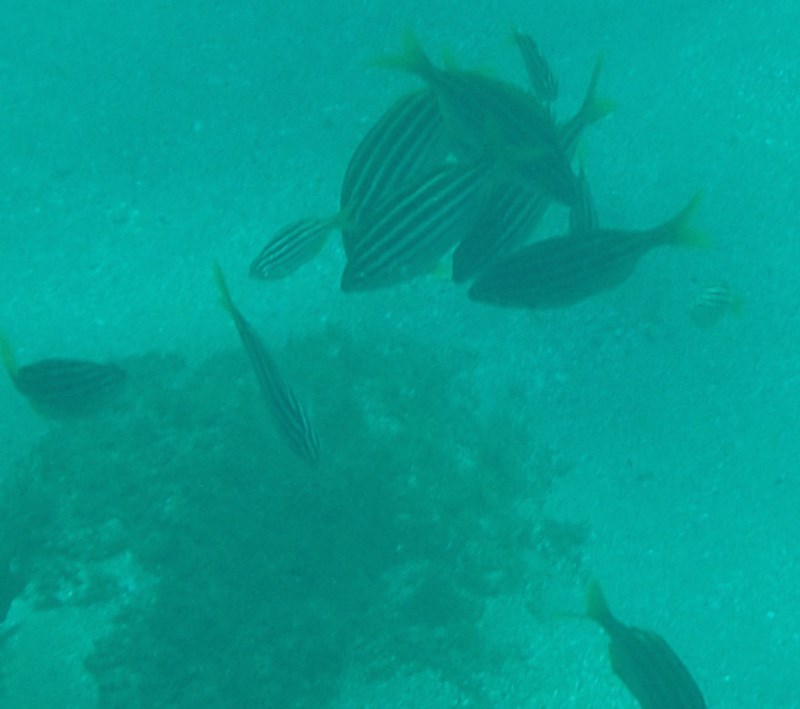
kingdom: Animalia
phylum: Chordata
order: Perciformes
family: Kyphosidae
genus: Atypichthys
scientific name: Atypichthys strigatus
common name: Australian mado
